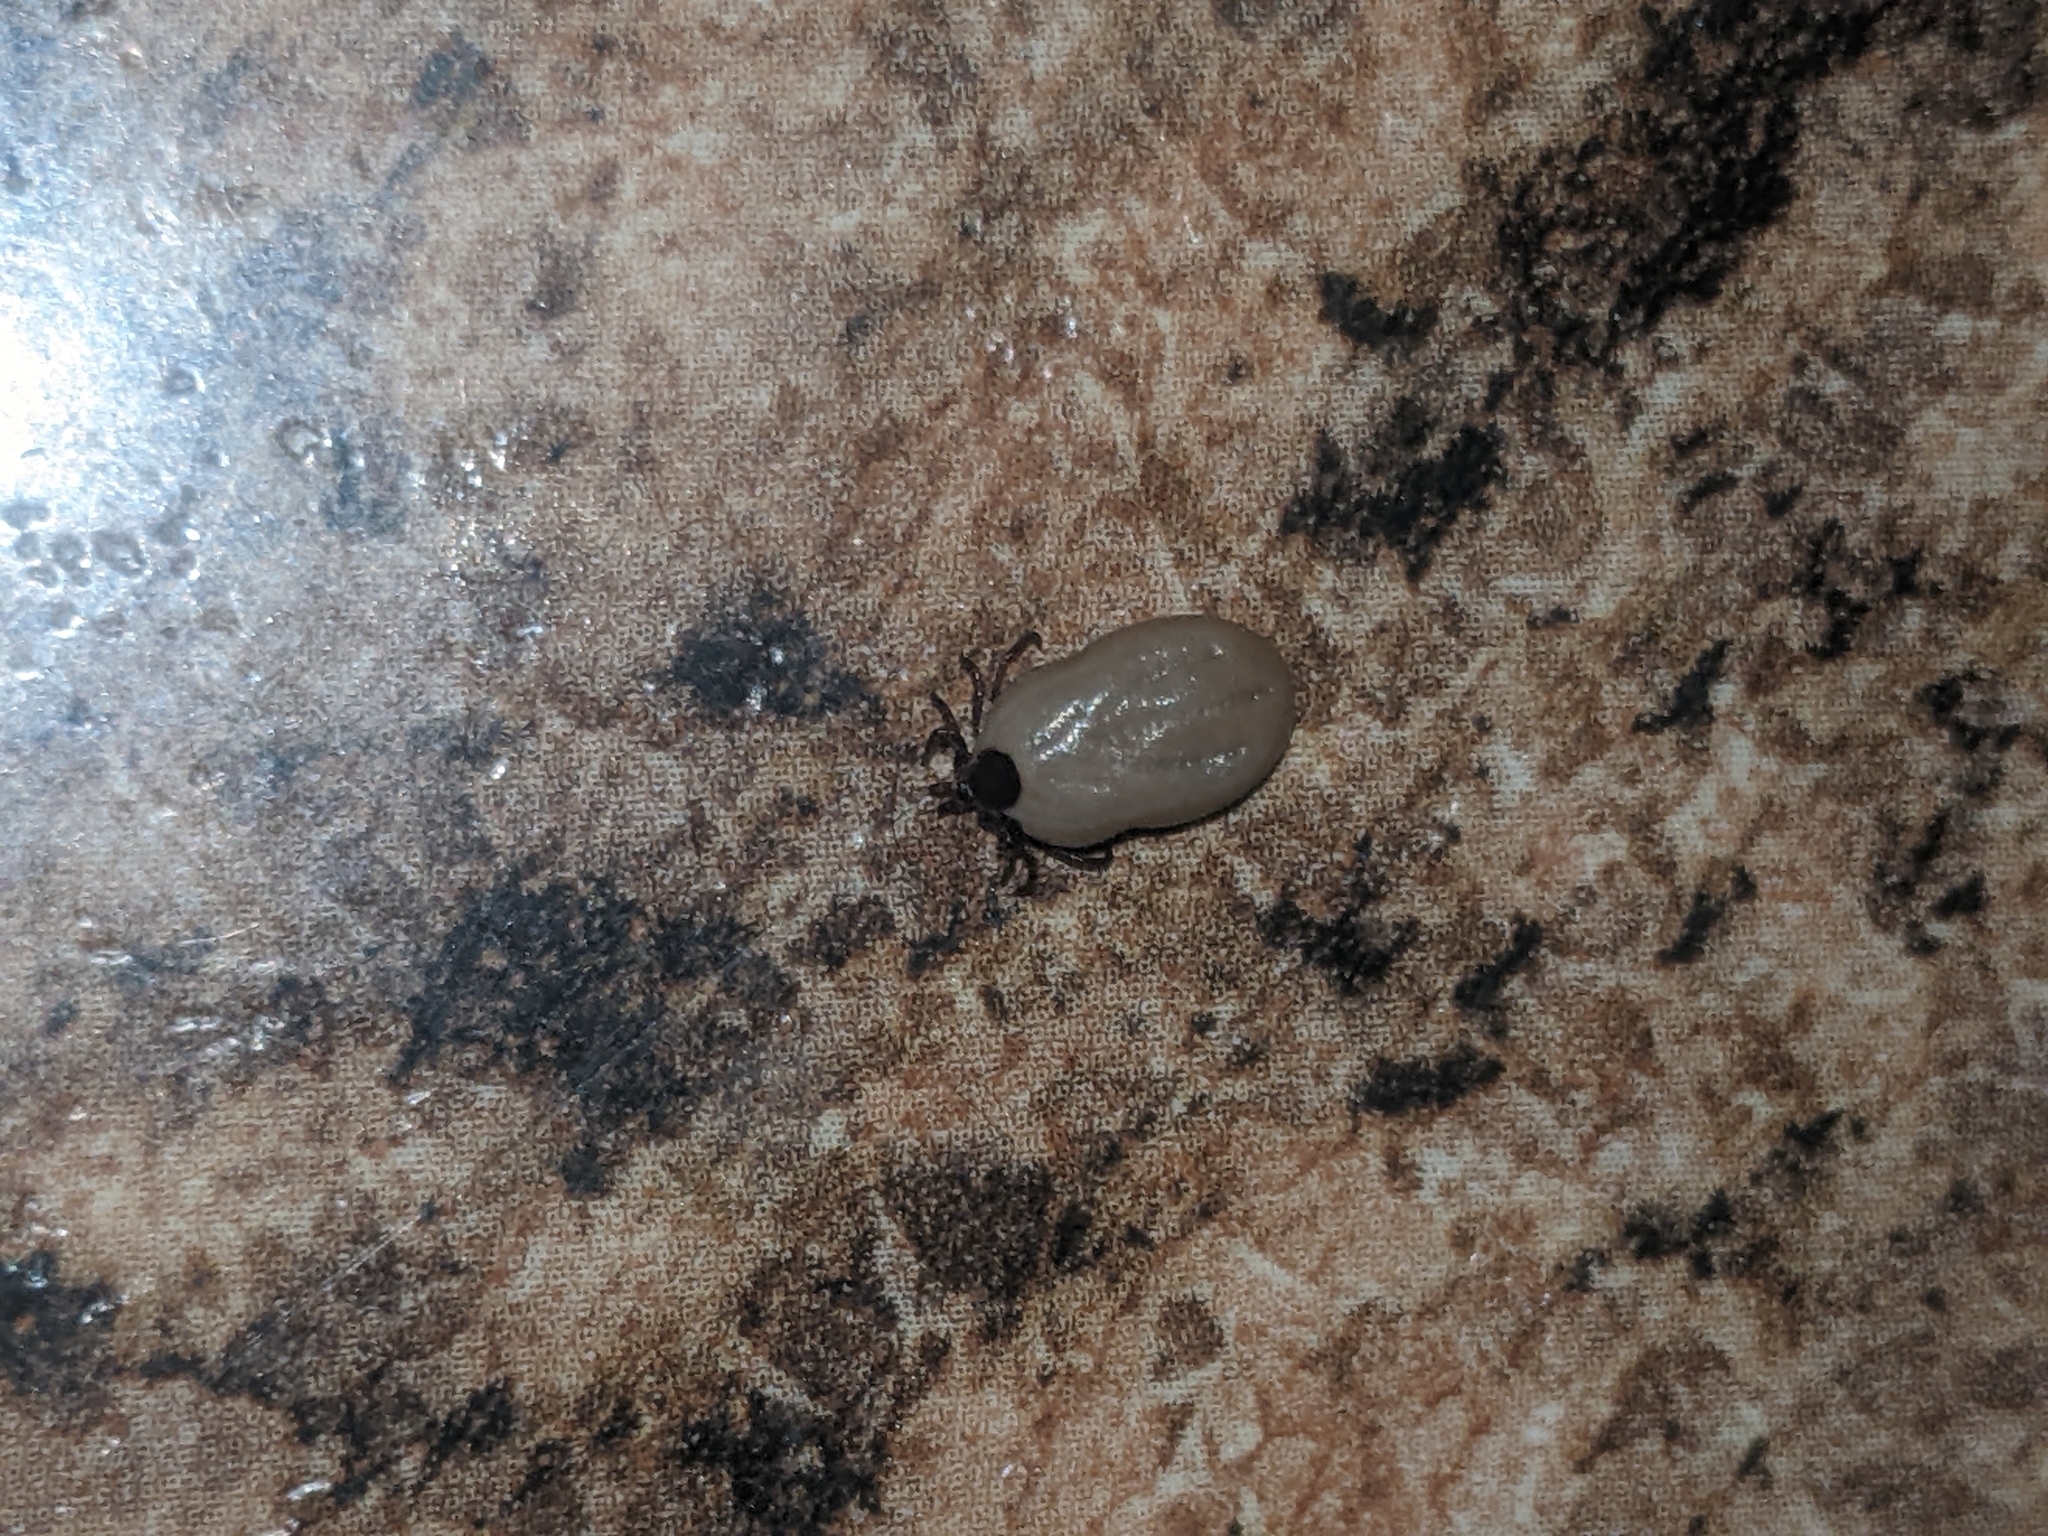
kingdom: Animalia
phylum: Arthropoda
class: Arachnida
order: Ixodida
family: Ixodidae
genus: Ixodes
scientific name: Ixodes scapularis
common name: Black legged tick
